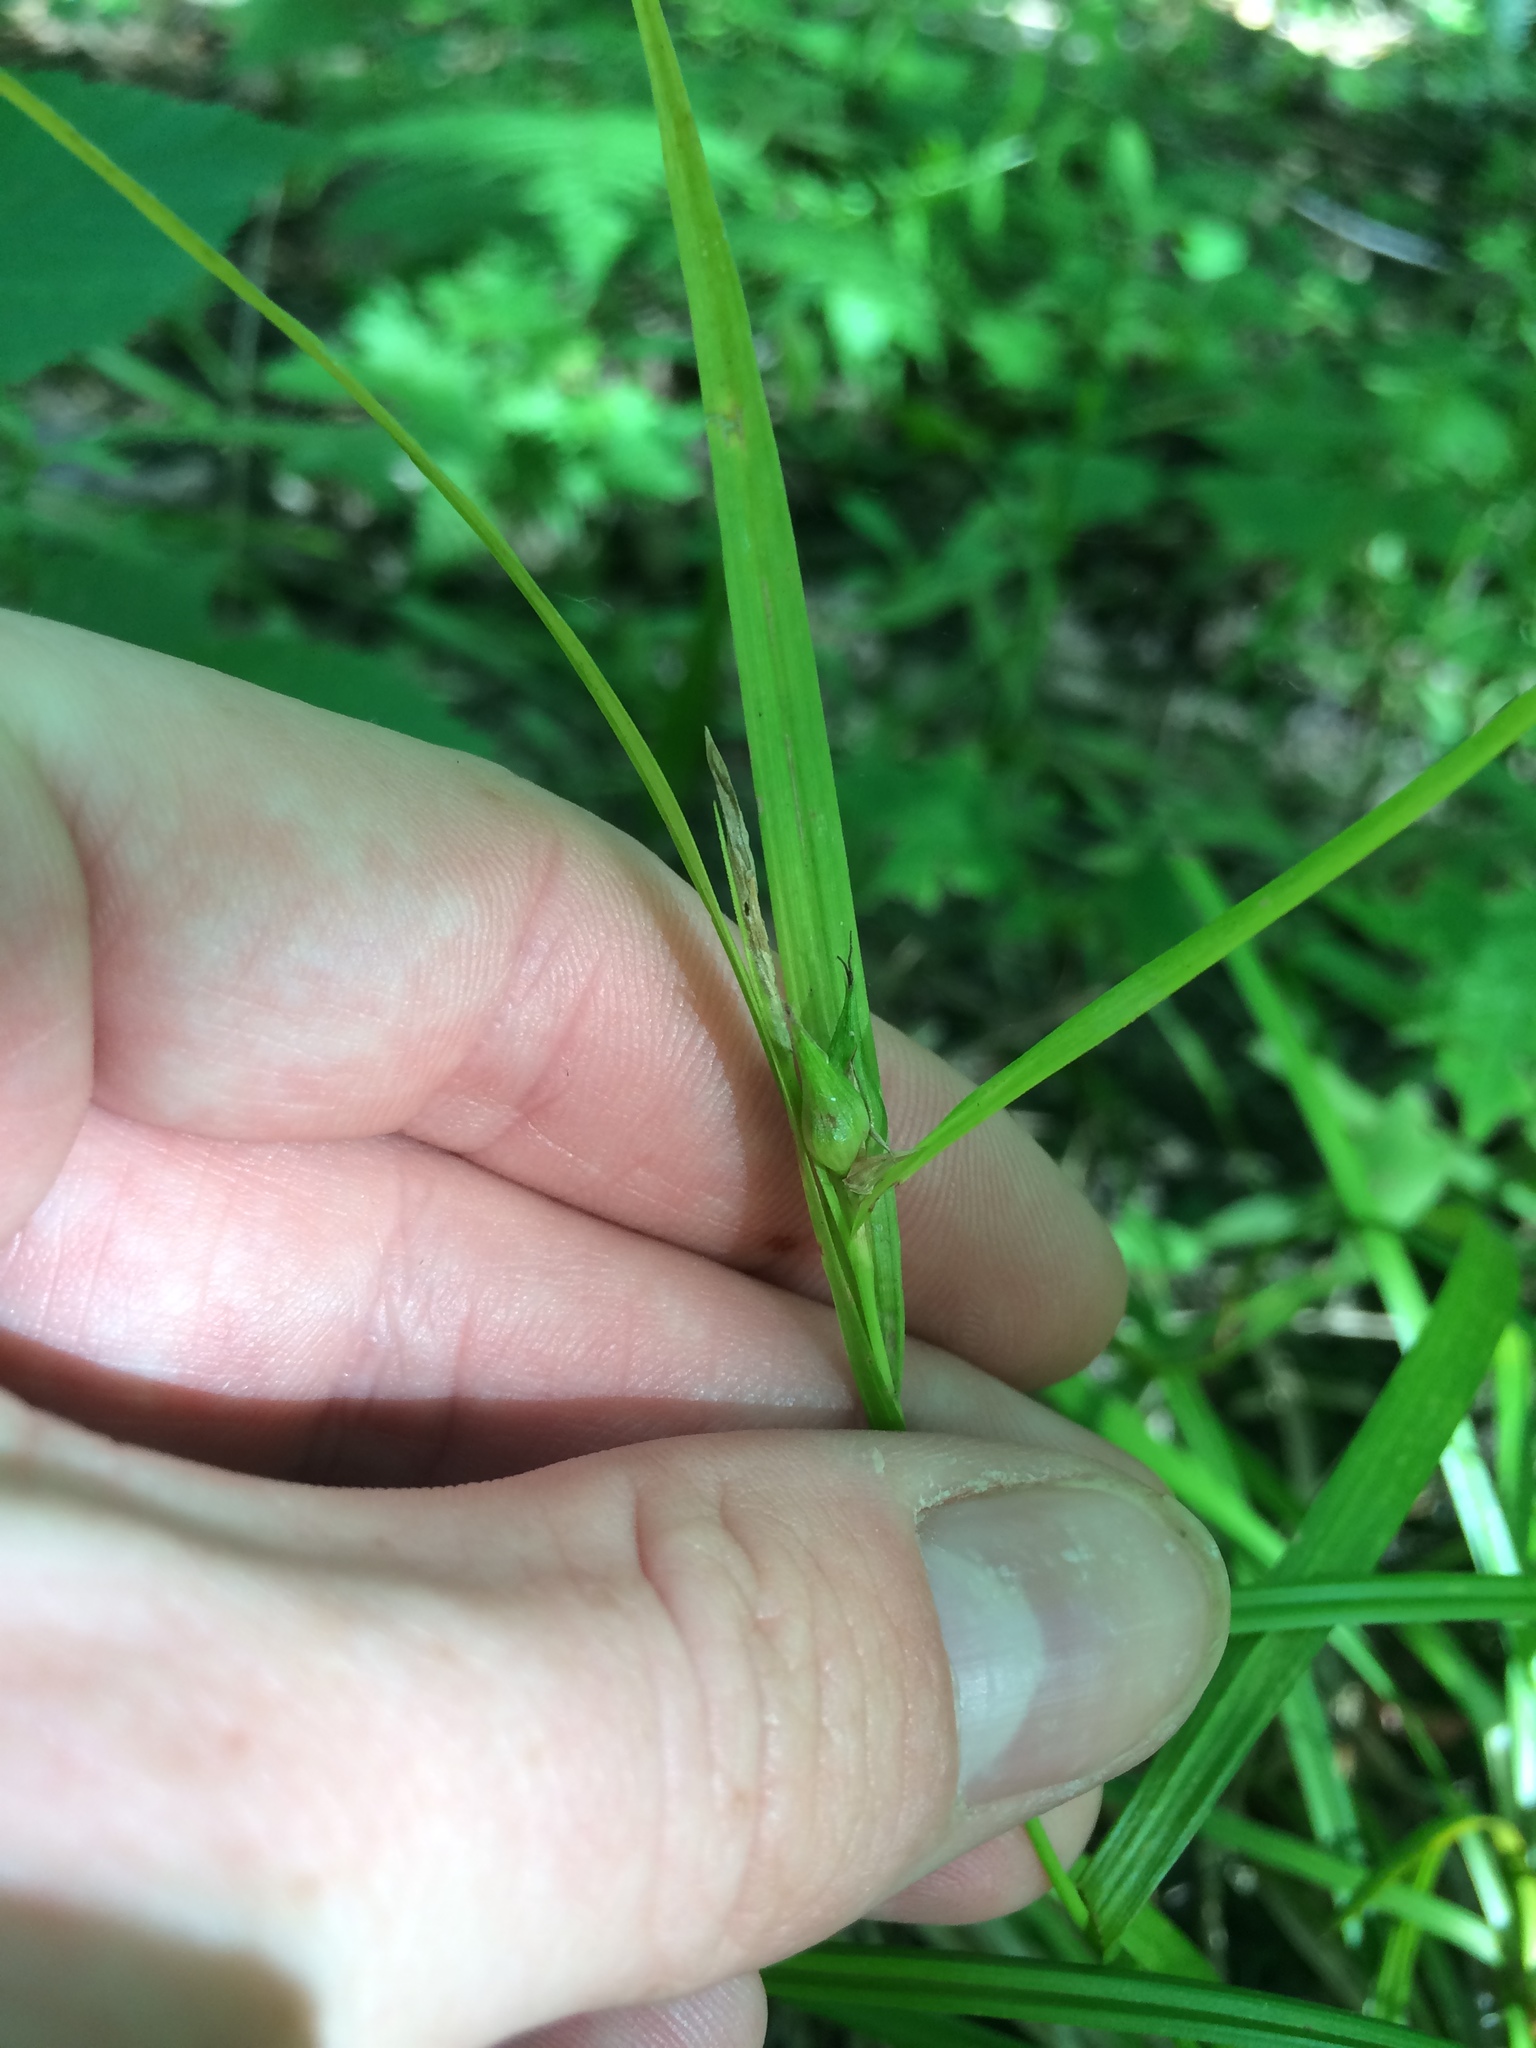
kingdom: Plantae
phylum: Tracheophyta
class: Liliopsida
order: Poales
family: Cyperaceae
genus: Carex
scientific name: Carex intumescens
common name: Greater bladder sedge
